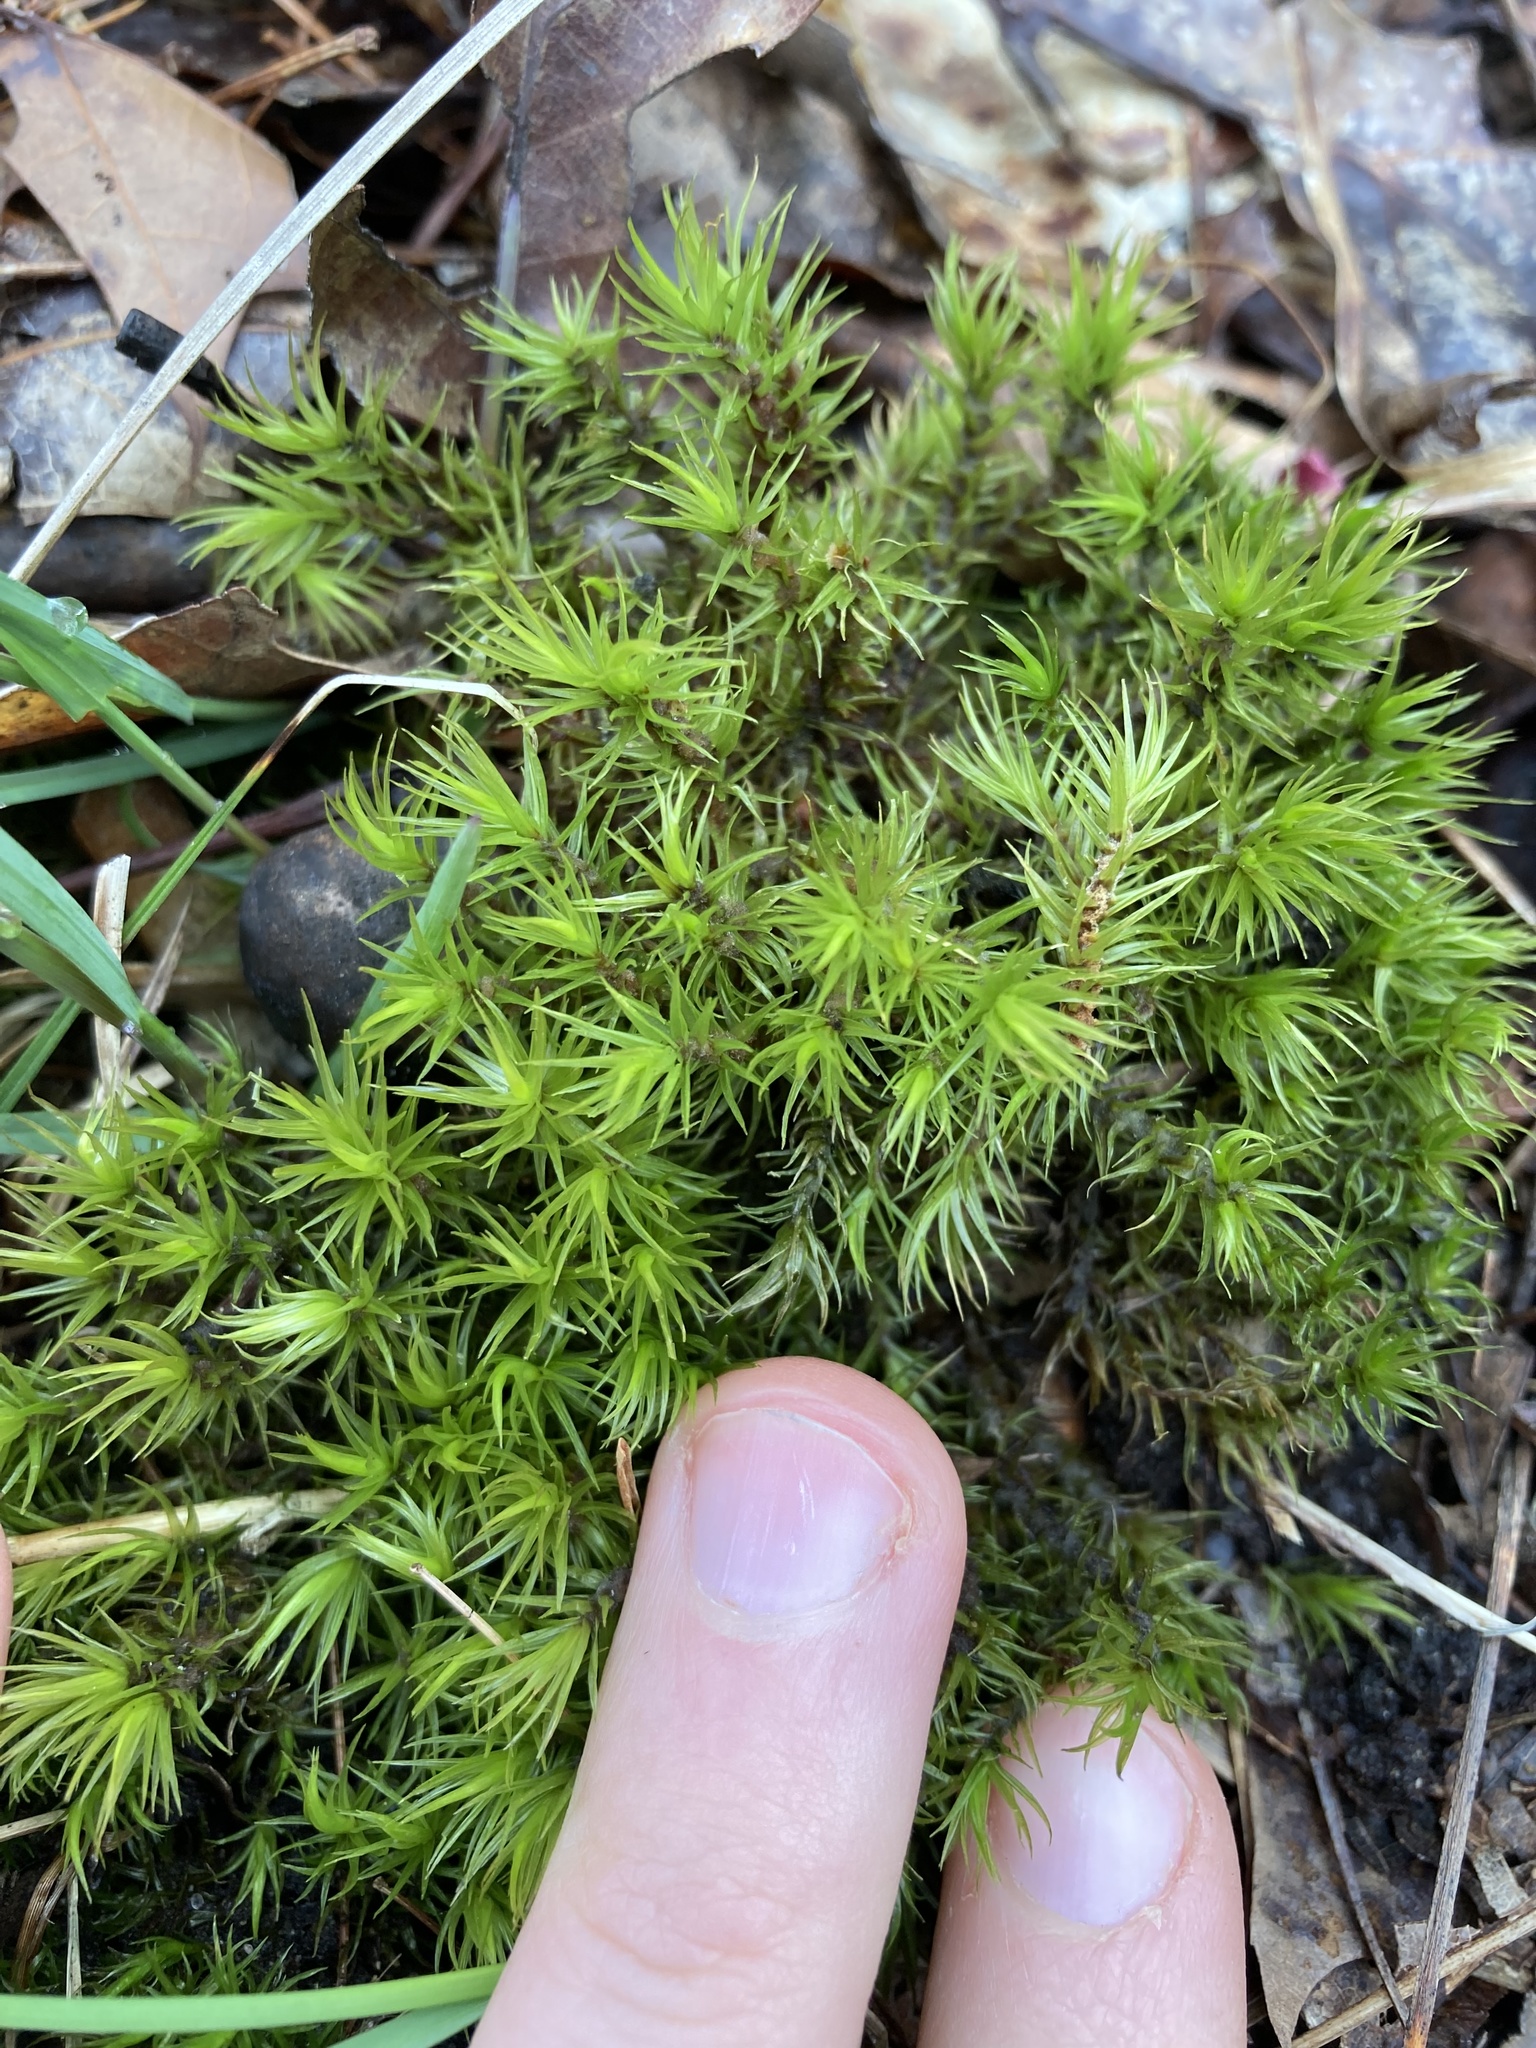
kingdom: Plantae
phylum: Bryophyta
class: Bryopsida
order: Dicranales
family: Dicranaceae
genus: Dicranum
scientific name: Dicranum polysetum
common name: Rugose fork-moss
